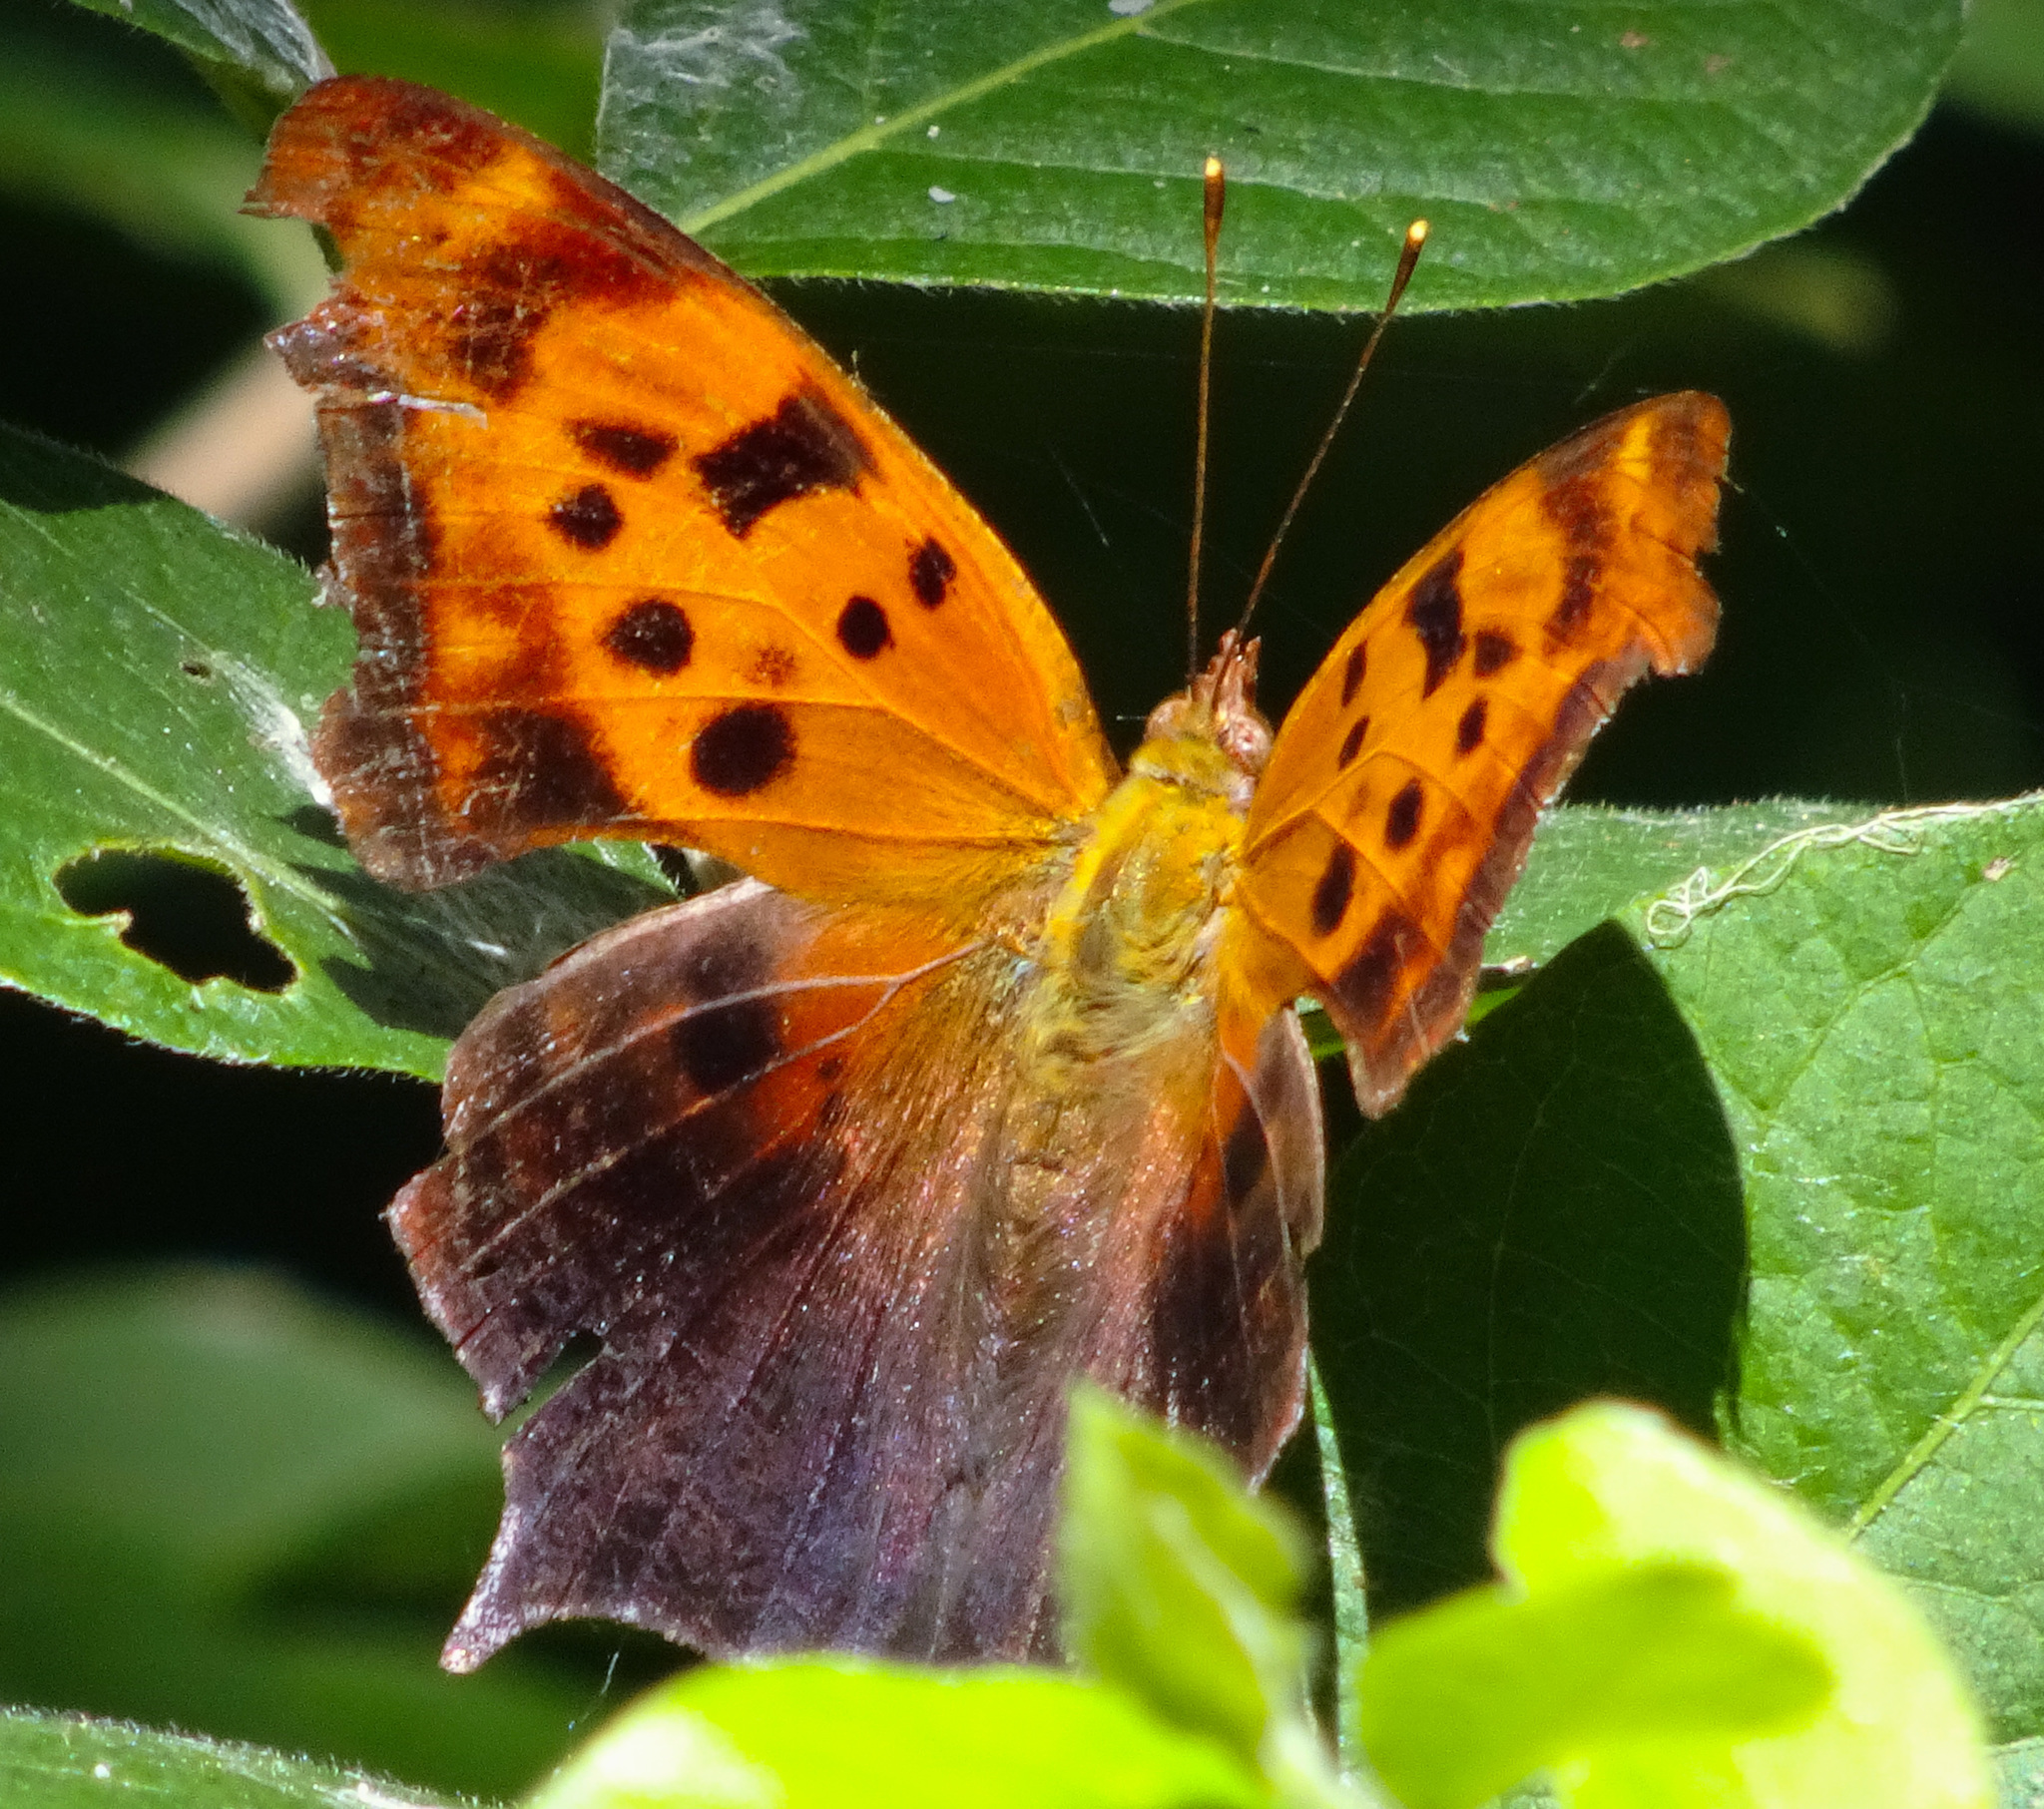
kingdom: Animalia
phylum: Arthropoda
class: Insecta
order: Lepidoptera
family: Nymphalidae
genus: Polygonia
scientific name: Polygonia interrogationis
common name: Question mark
